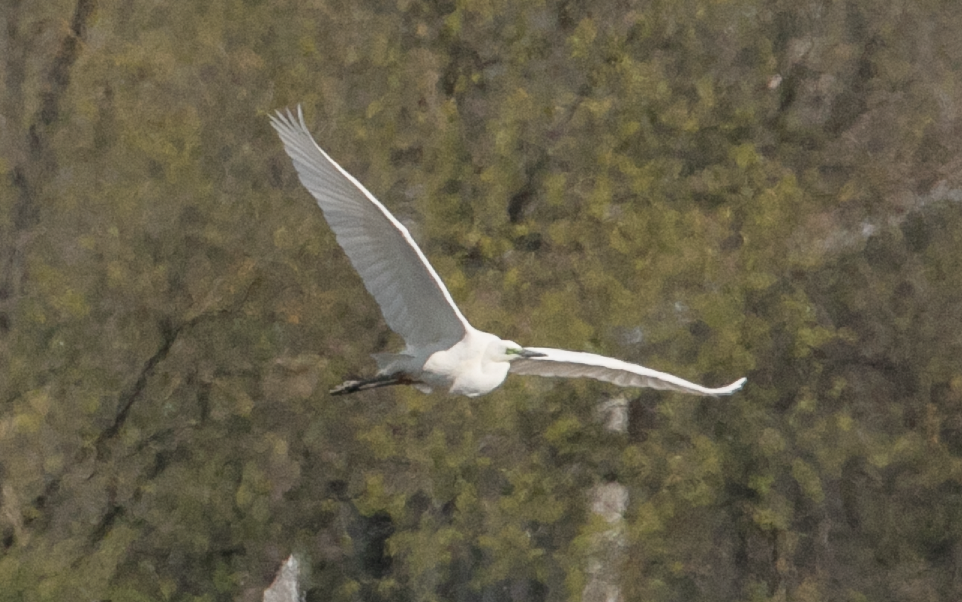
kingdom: Animalia
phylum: Chordata
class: Aves
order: Pelecaniformes
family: Ardeidae
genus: Ardea
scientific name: Ardea alba
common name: Great egret
